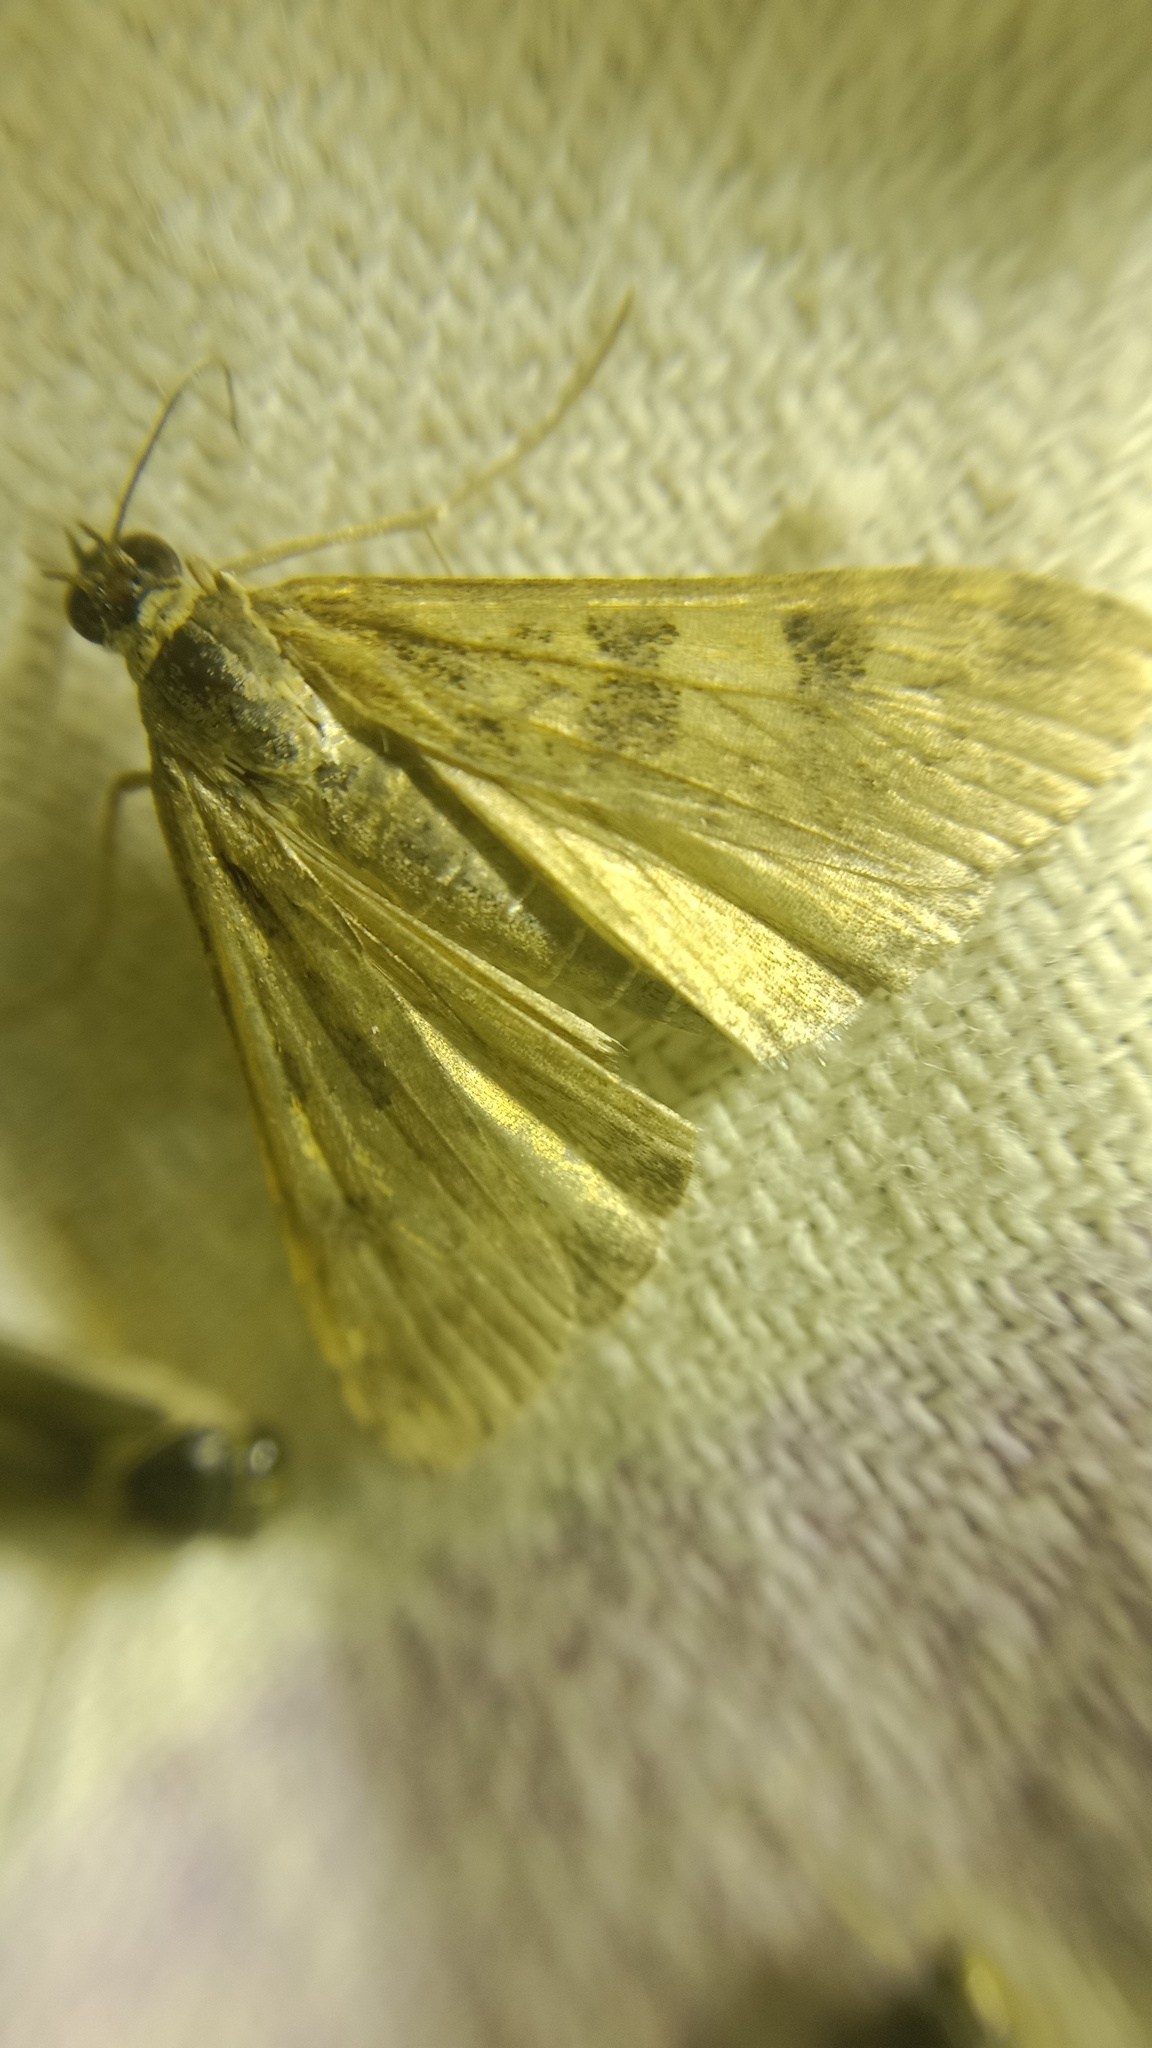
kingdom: Animalia
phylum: Arthropoda
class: Insecta
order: Lepidoptera
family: Crambidae
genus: Nomophila
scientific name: Nomophila noctuella
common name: Rush veneer
